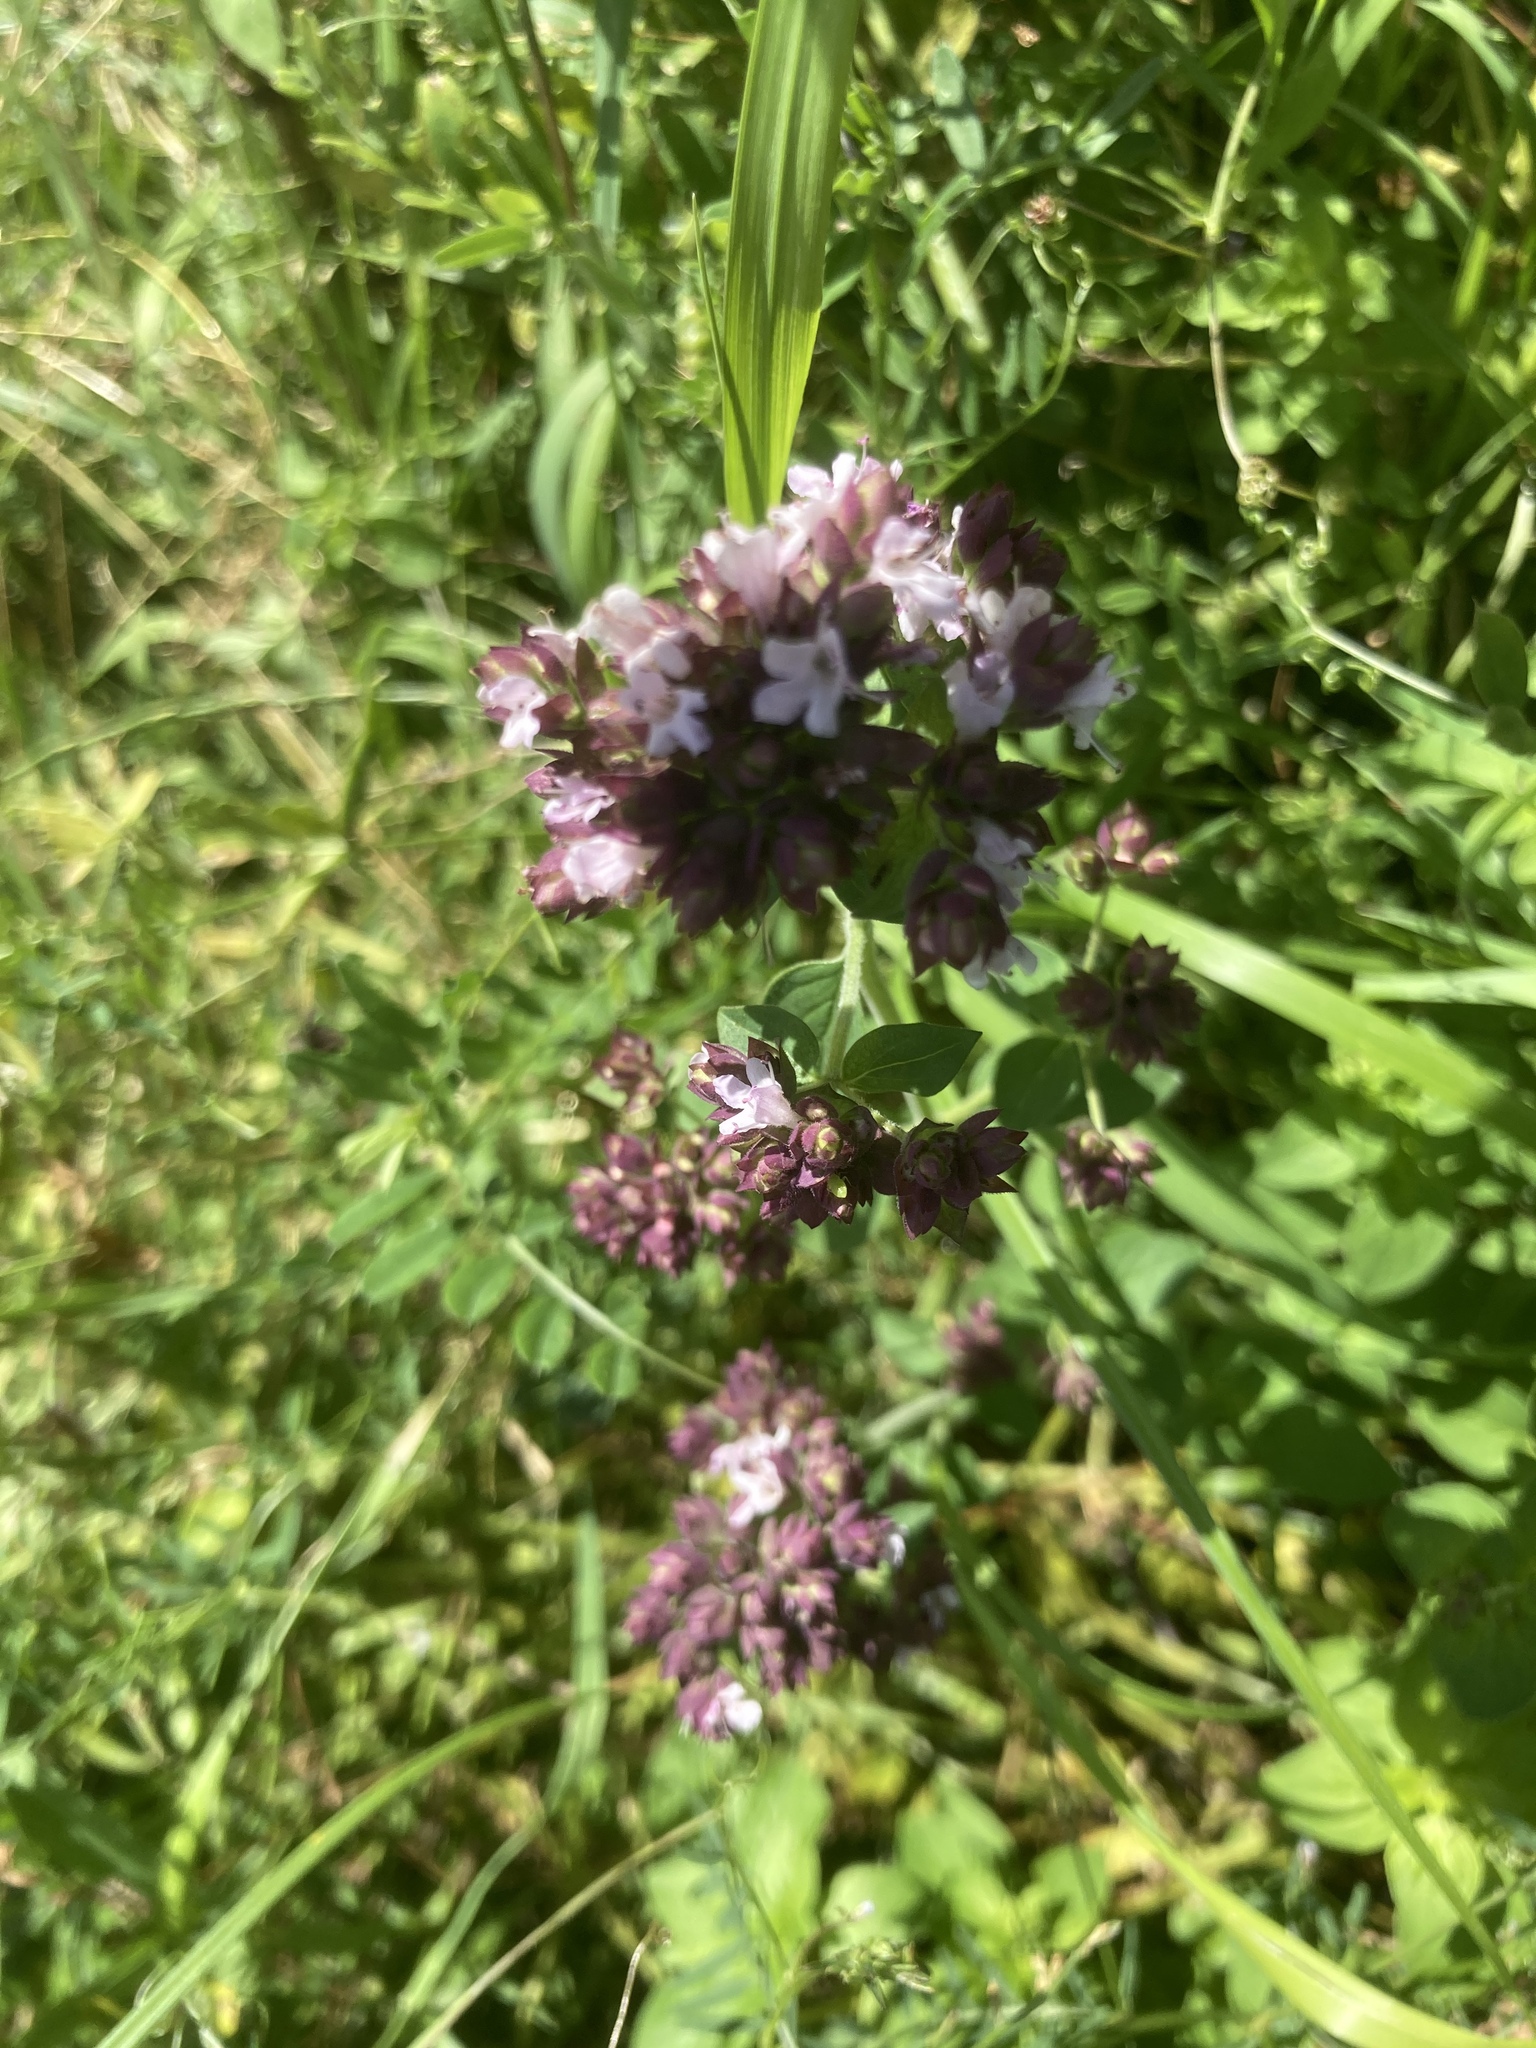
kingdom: Plantae
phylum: Tracheophyta
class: Magnoliopsida
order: Lamiales
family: Lamiaceae
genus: Origanum
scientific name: Origanum vulgare
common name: Wild marjoram
